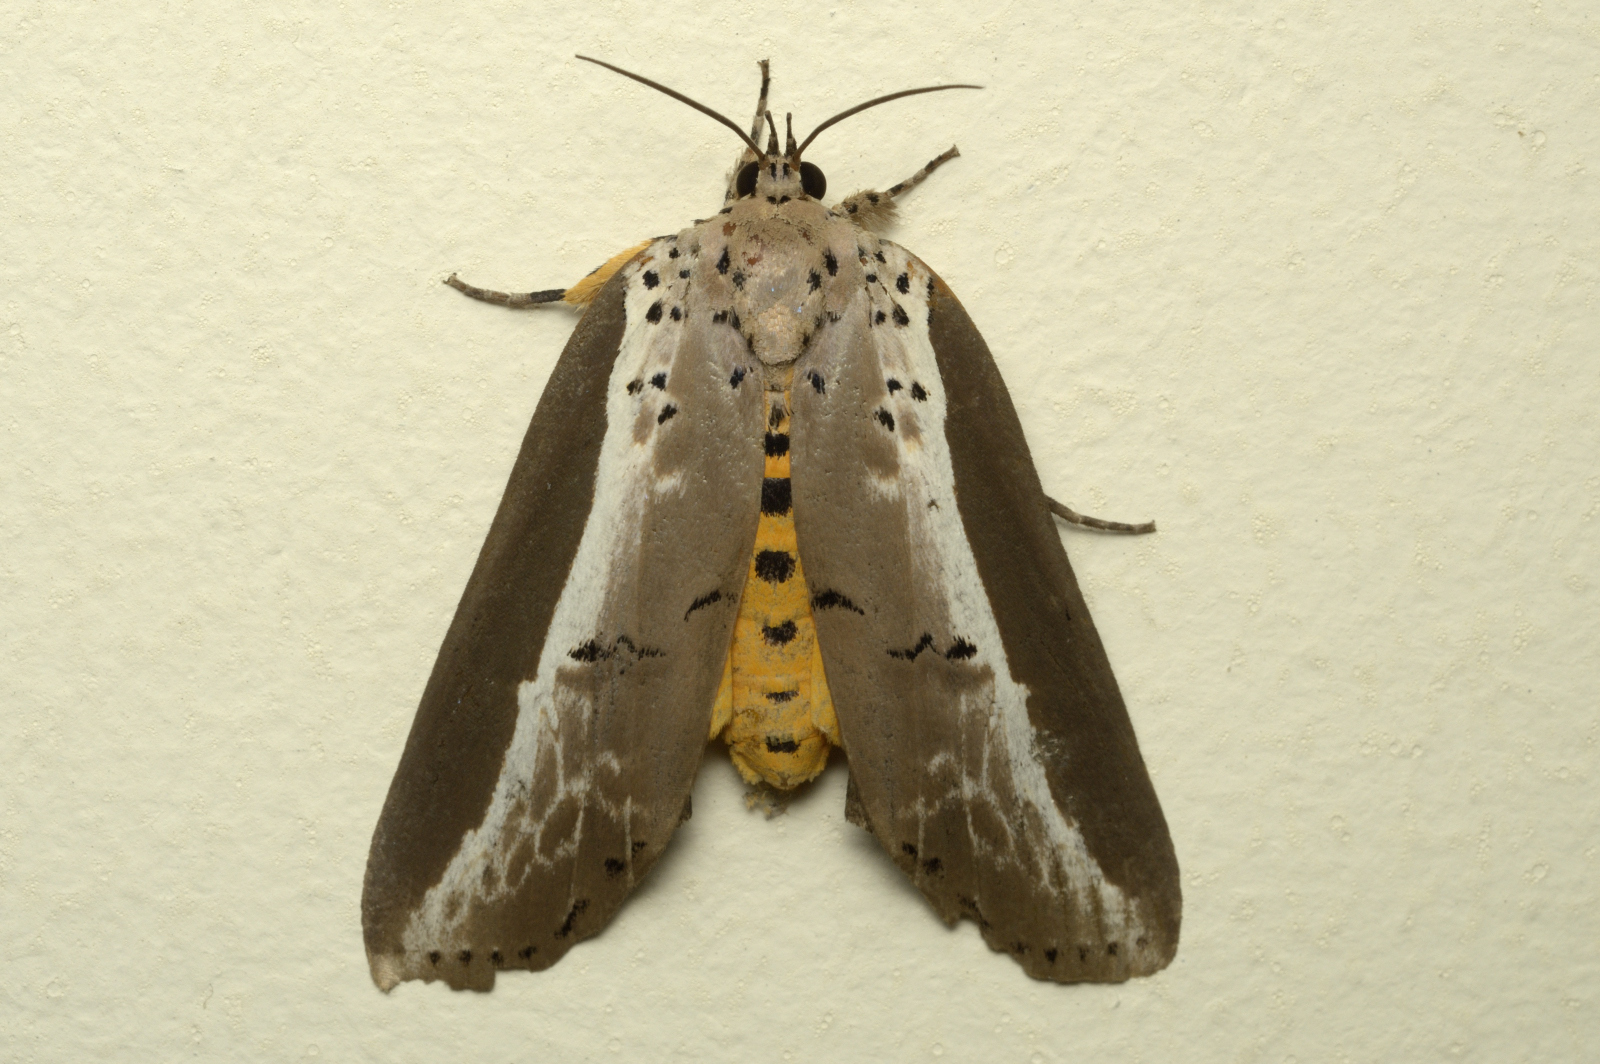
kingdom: Animalia
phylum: Arthropoda
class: Insecta
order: Lepidoptera
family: Nolidae
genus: Eligma
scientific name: Eligma narcissus
